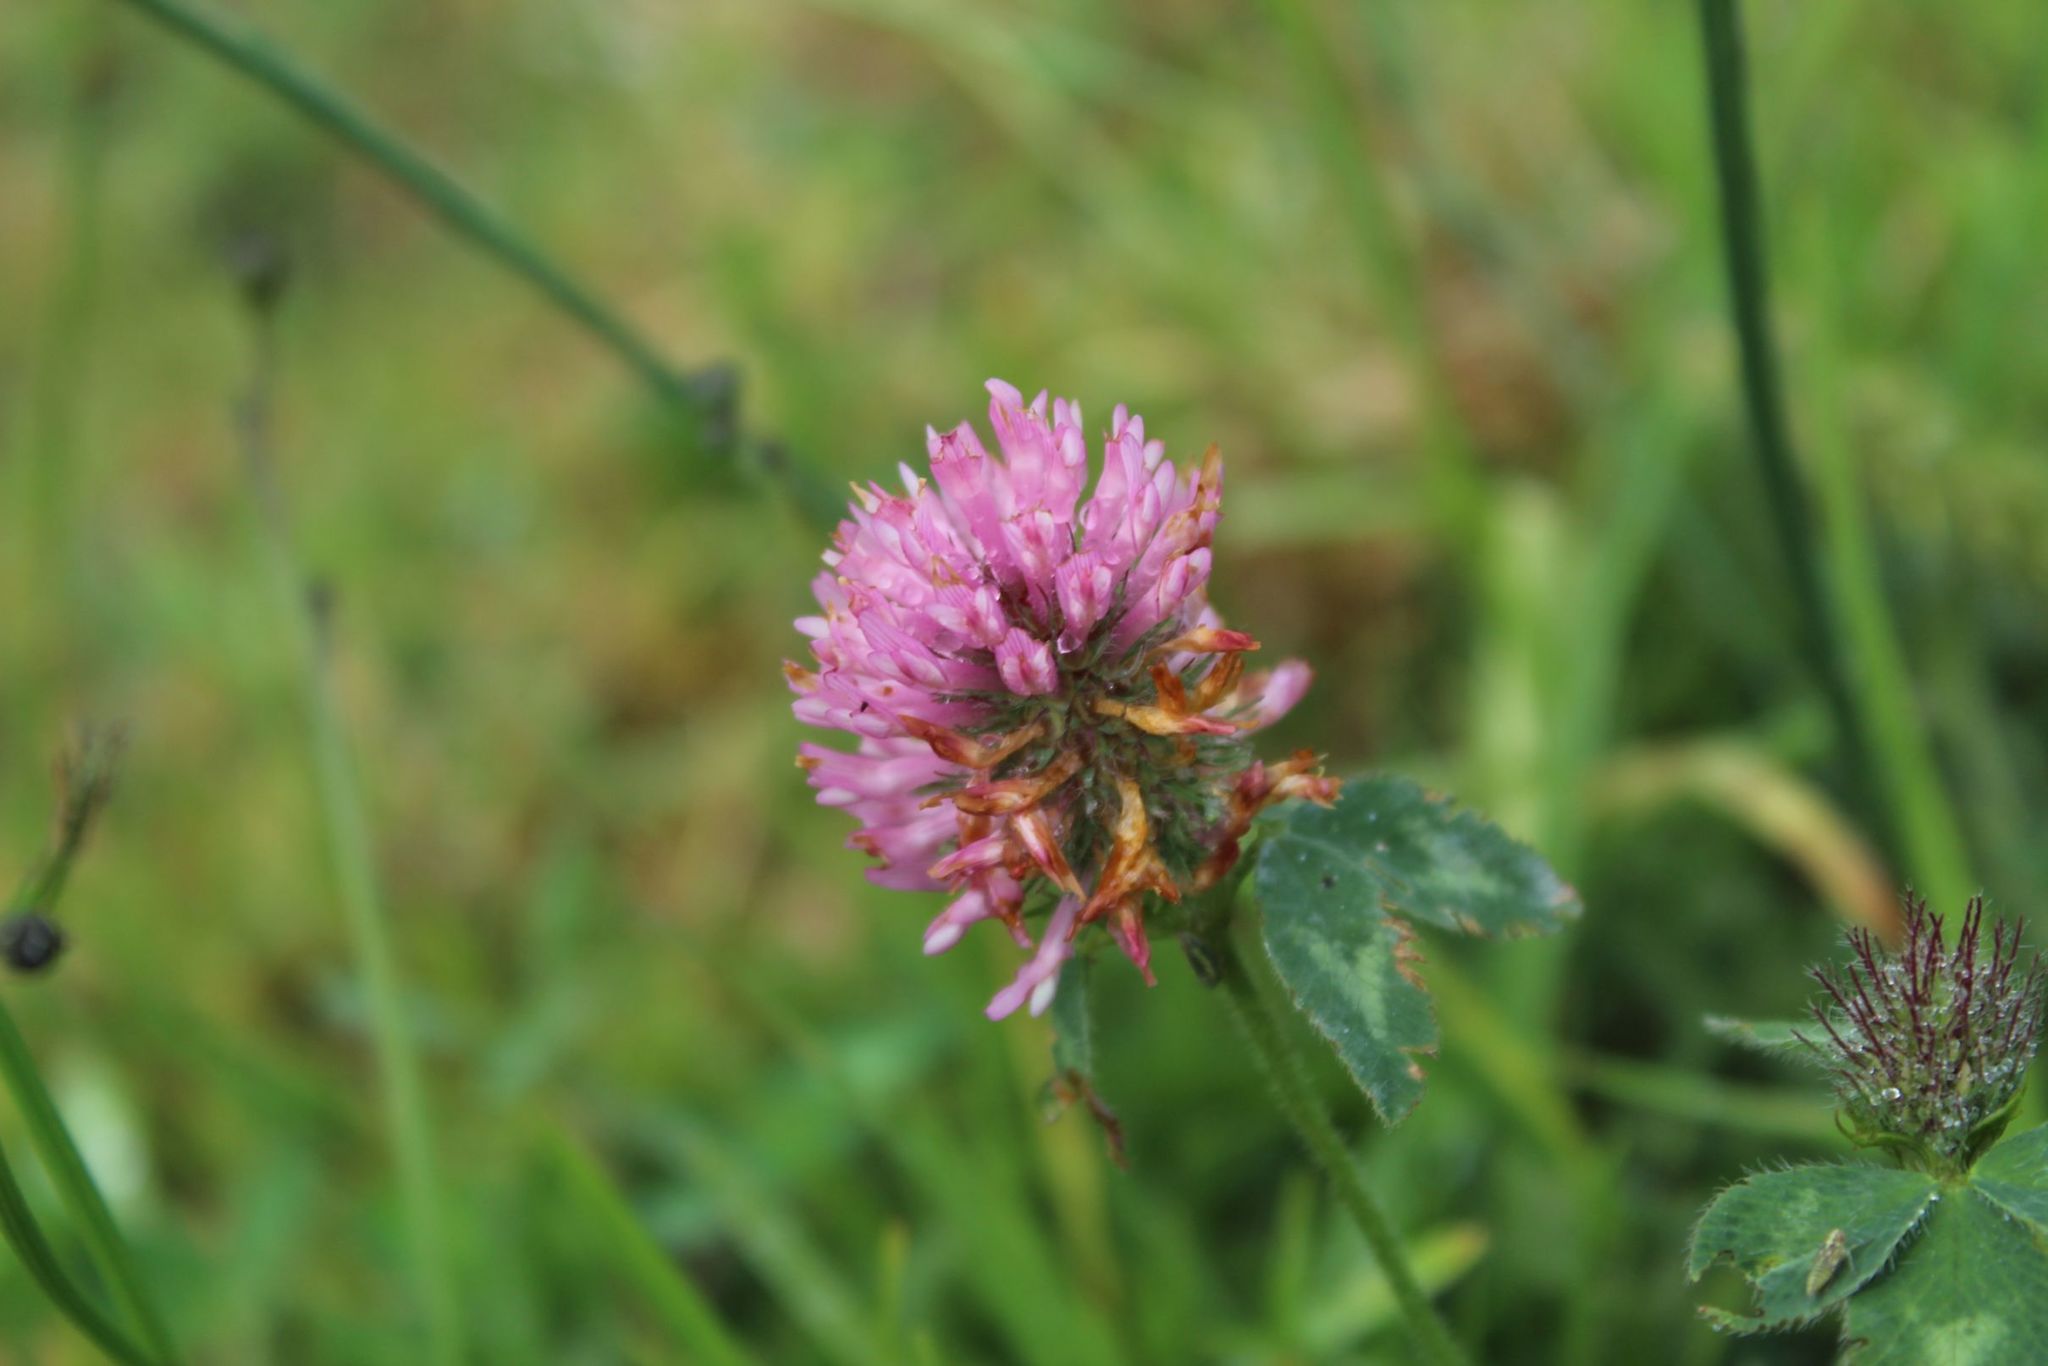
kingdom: Plantae
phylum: Tracheophyta
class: Magnoliopsida
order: Fabales
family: Fabaceae
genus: Trifolium
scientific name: Trifolium pratense
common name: Red clover
